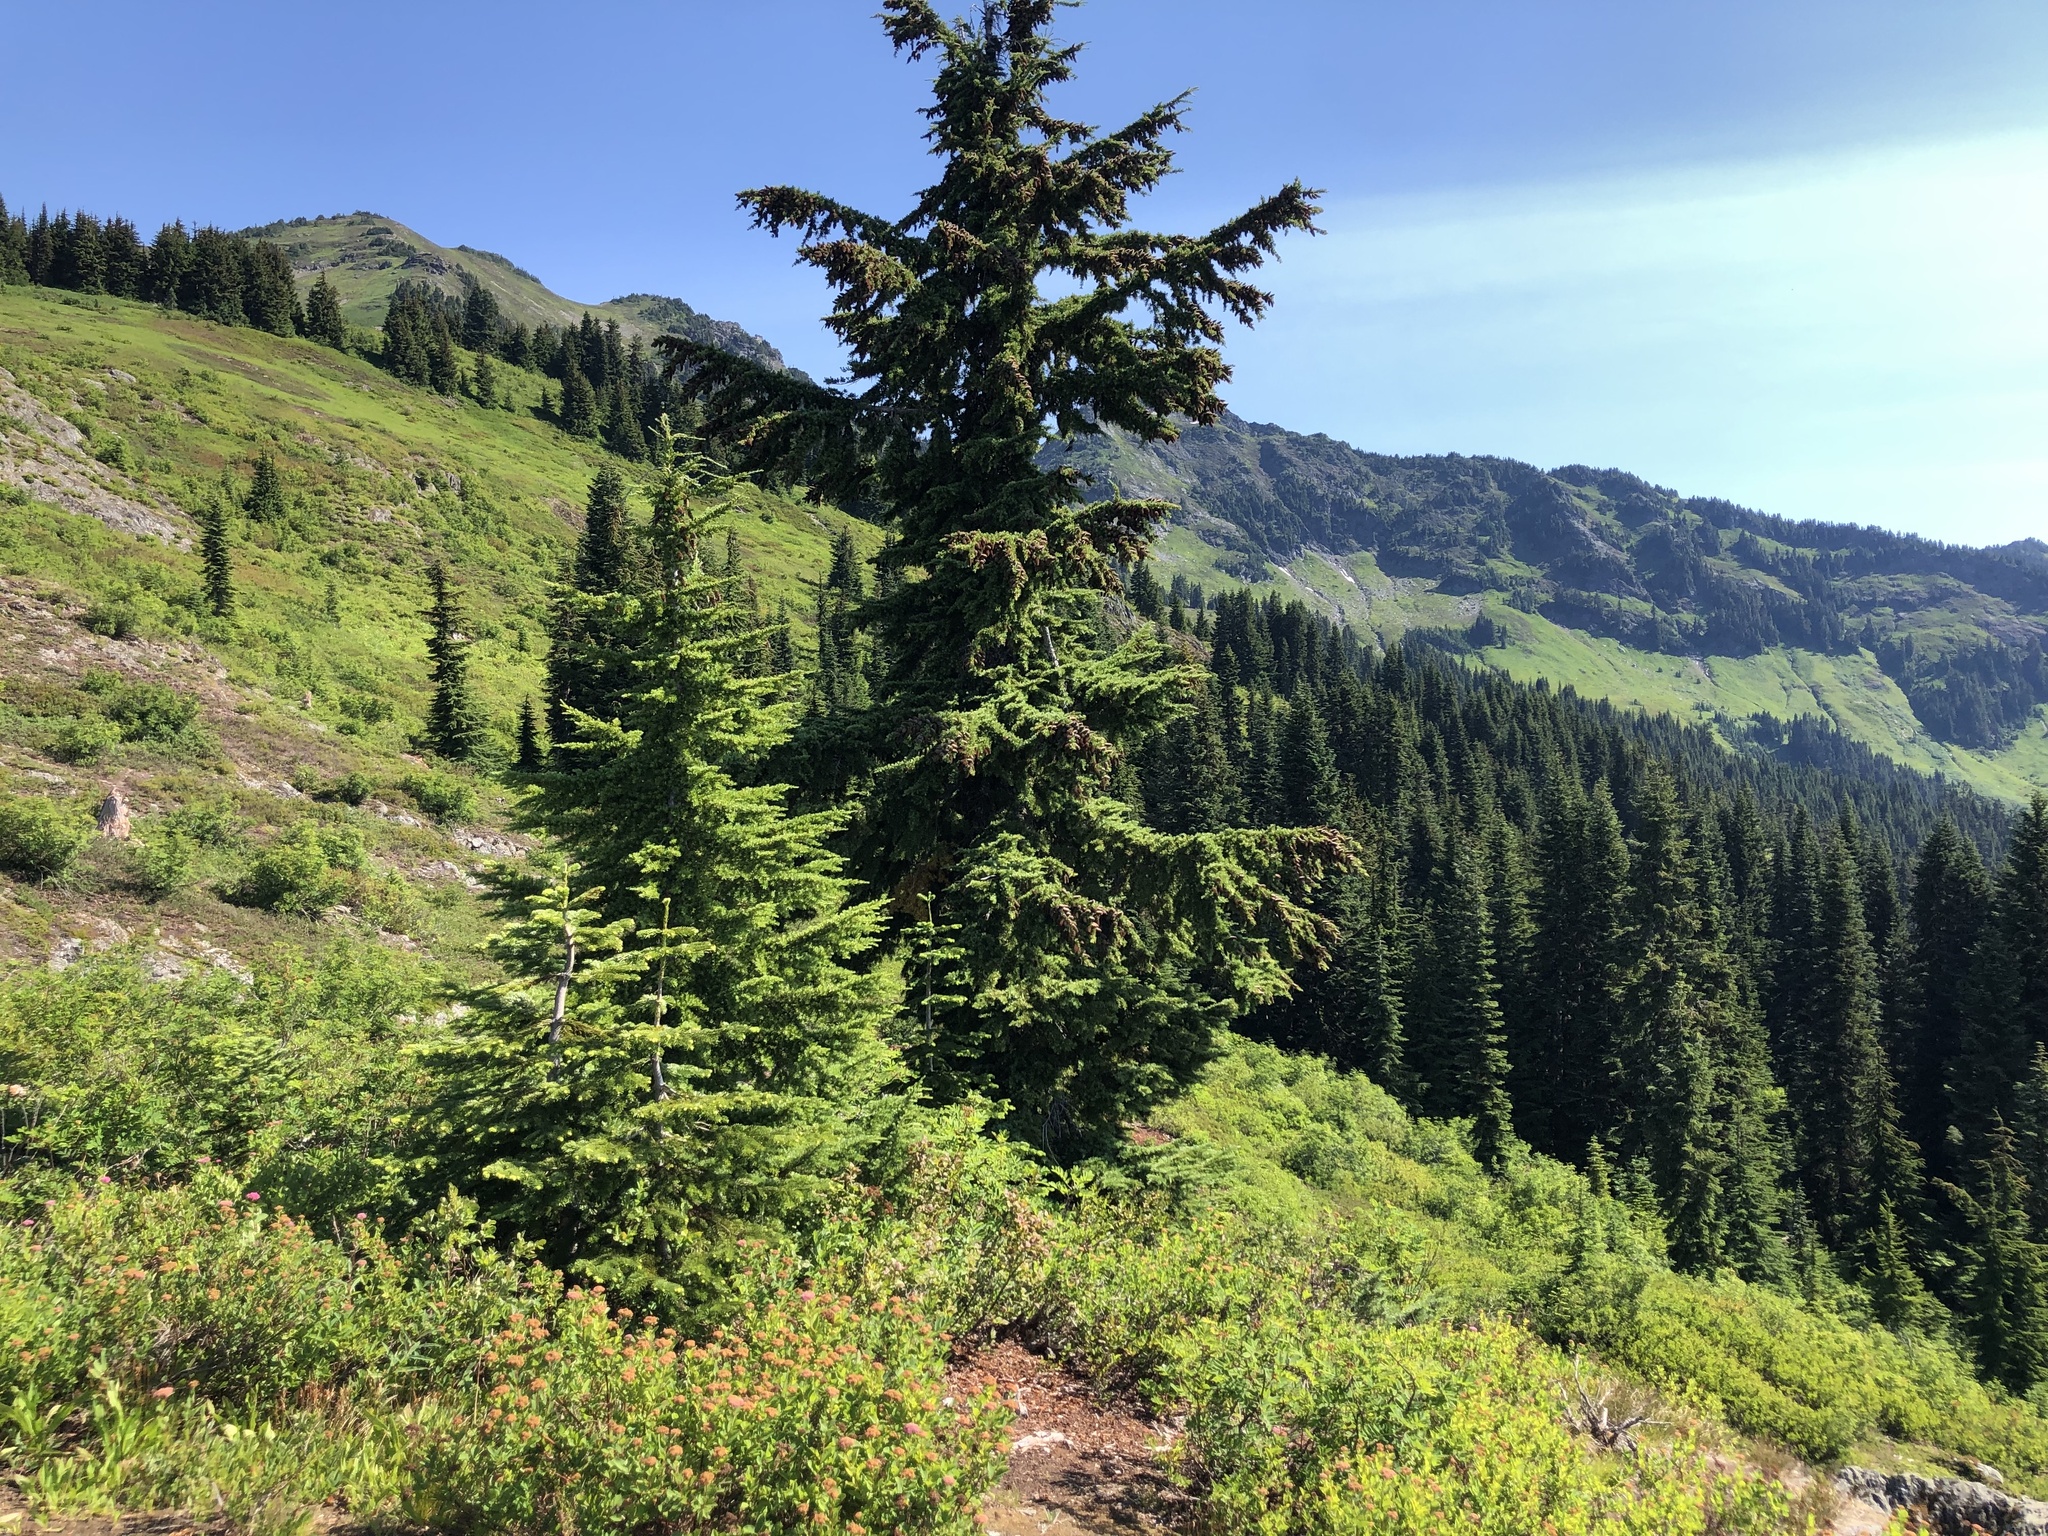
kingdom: Plantae
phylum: Tracheophyta
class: Pinopsida
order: Pinales
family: Pinaceae
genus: Tsuga
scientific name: Tsuga mertensiana
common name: Mountain hemlock
